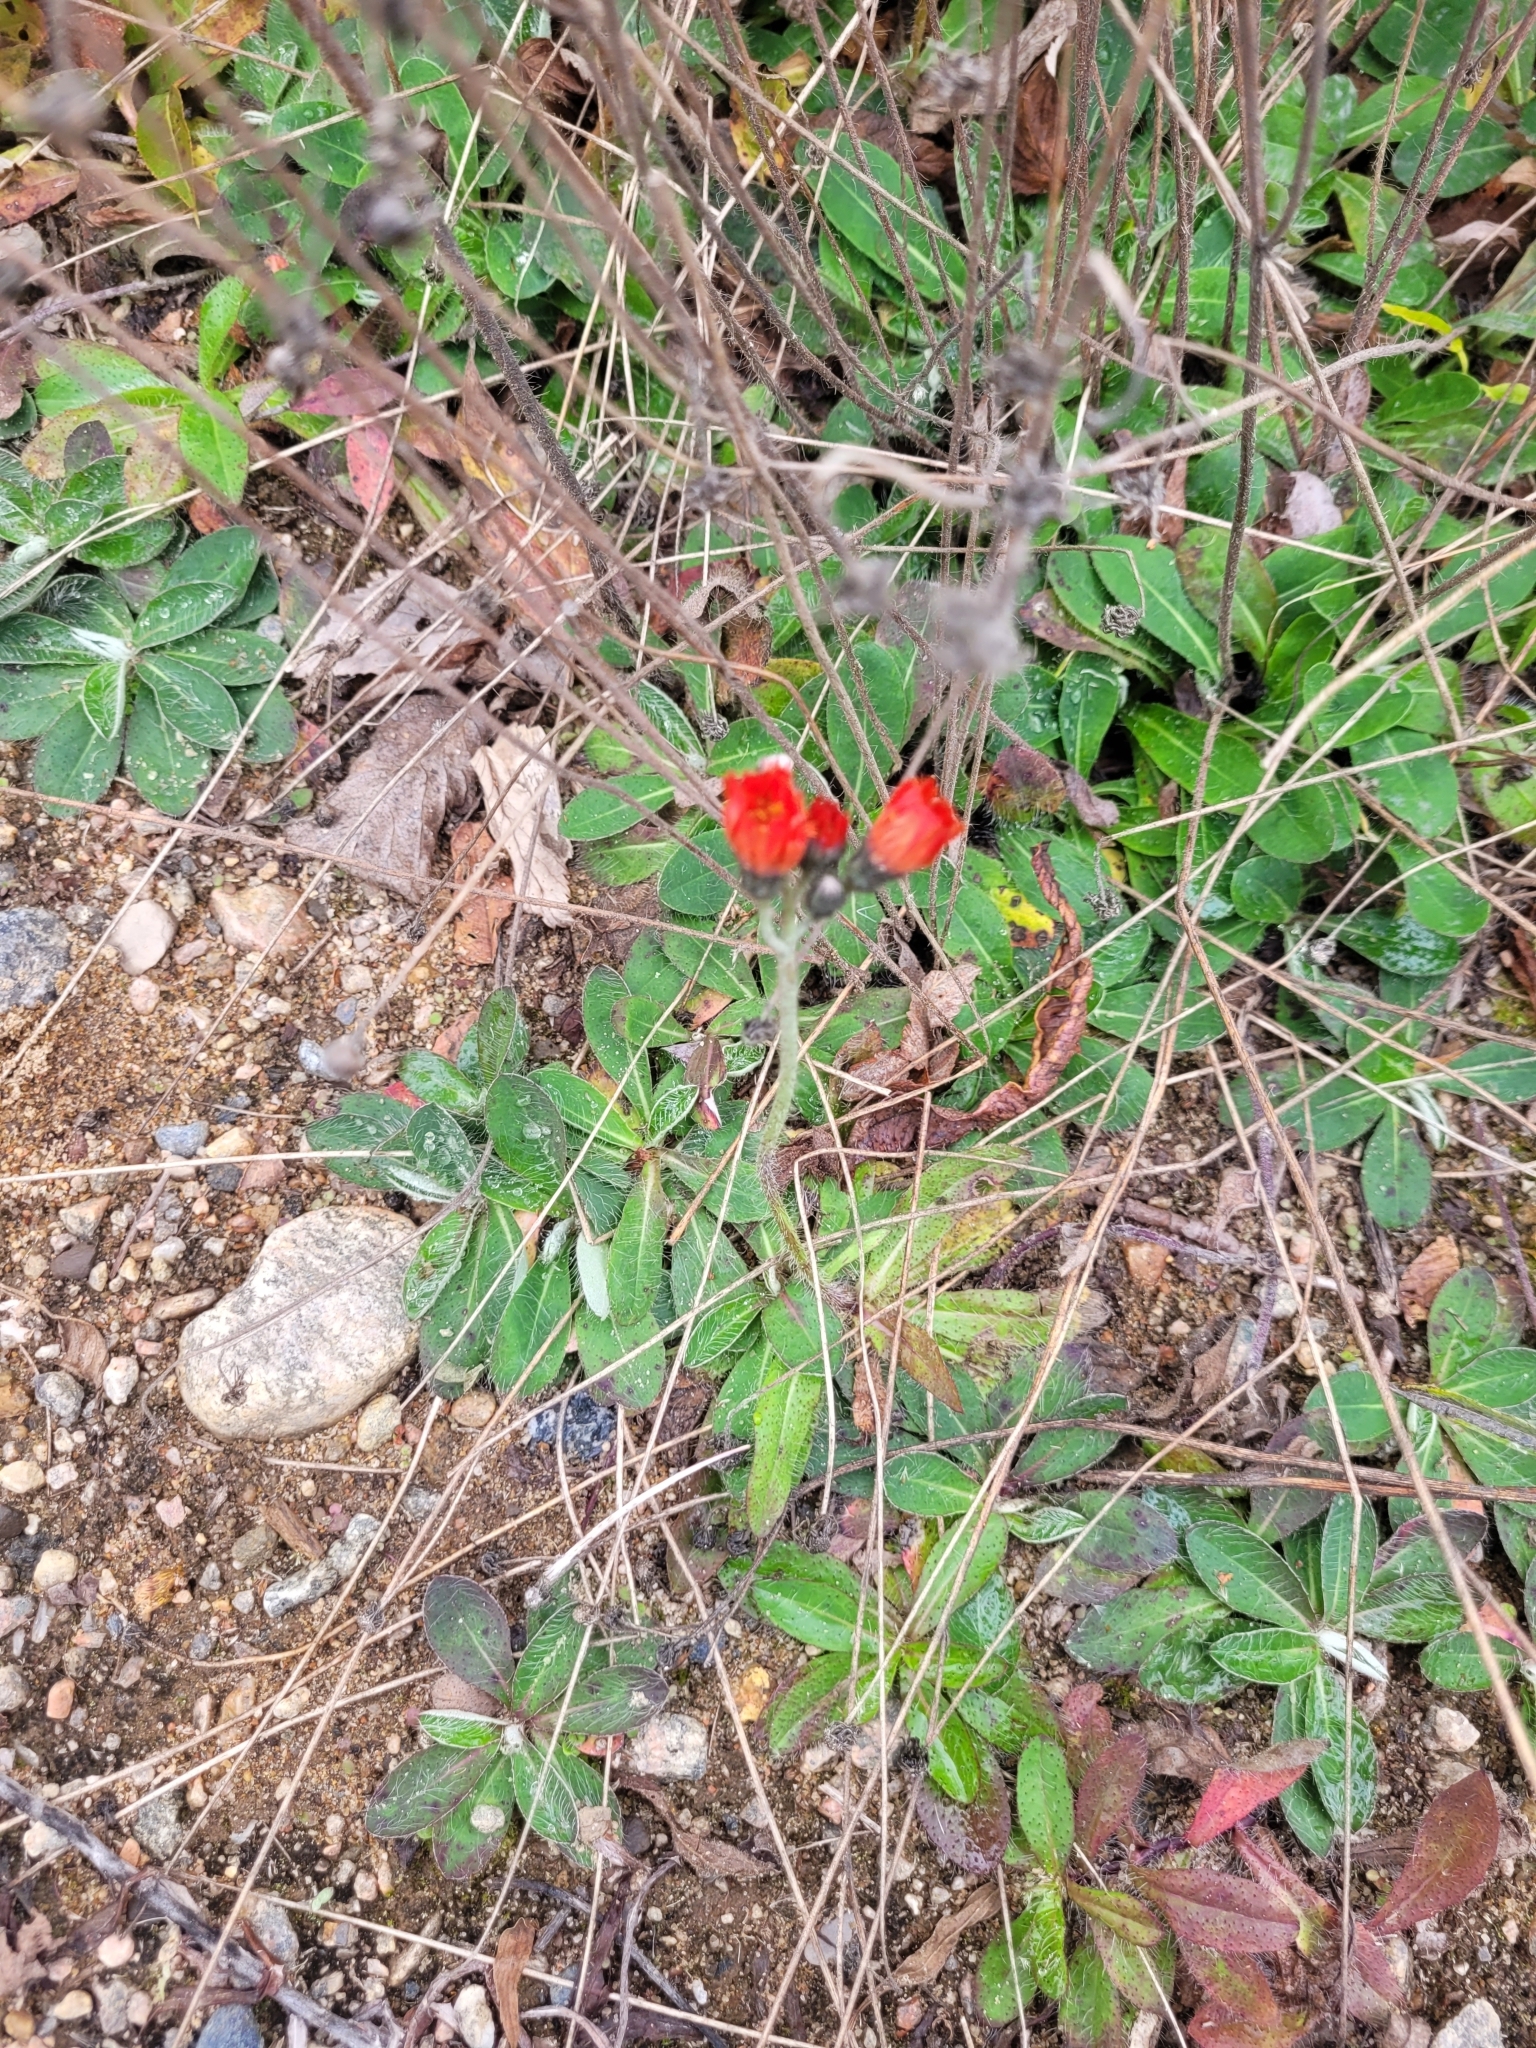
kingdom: Plantae
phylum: Tracheophyta
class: Magnoliopsida
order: Asterales
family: Asteraceae
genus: Pilosella
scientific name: Pilosella aurantiaca
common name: Fox-and-cubs
